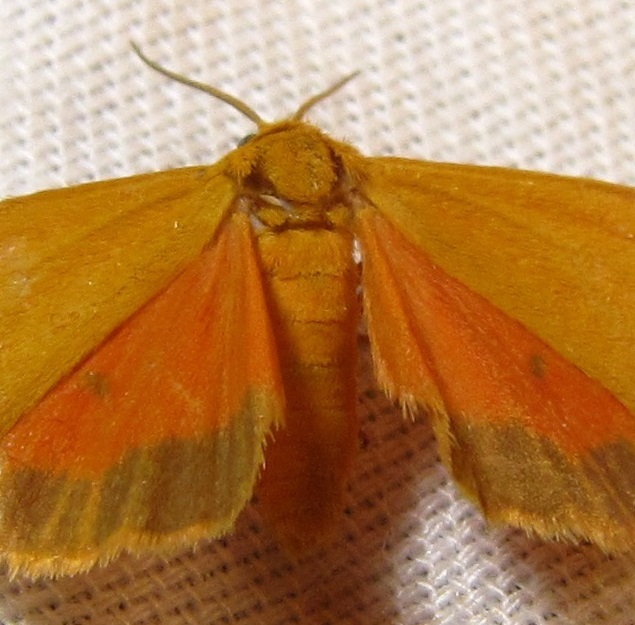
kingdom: Animalia
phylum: Arthropoda
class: Insecta
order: Lepidoptera
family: Erebidae
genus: Virbia
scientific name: Virbia aurantiaca
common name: Orange virbia moth
